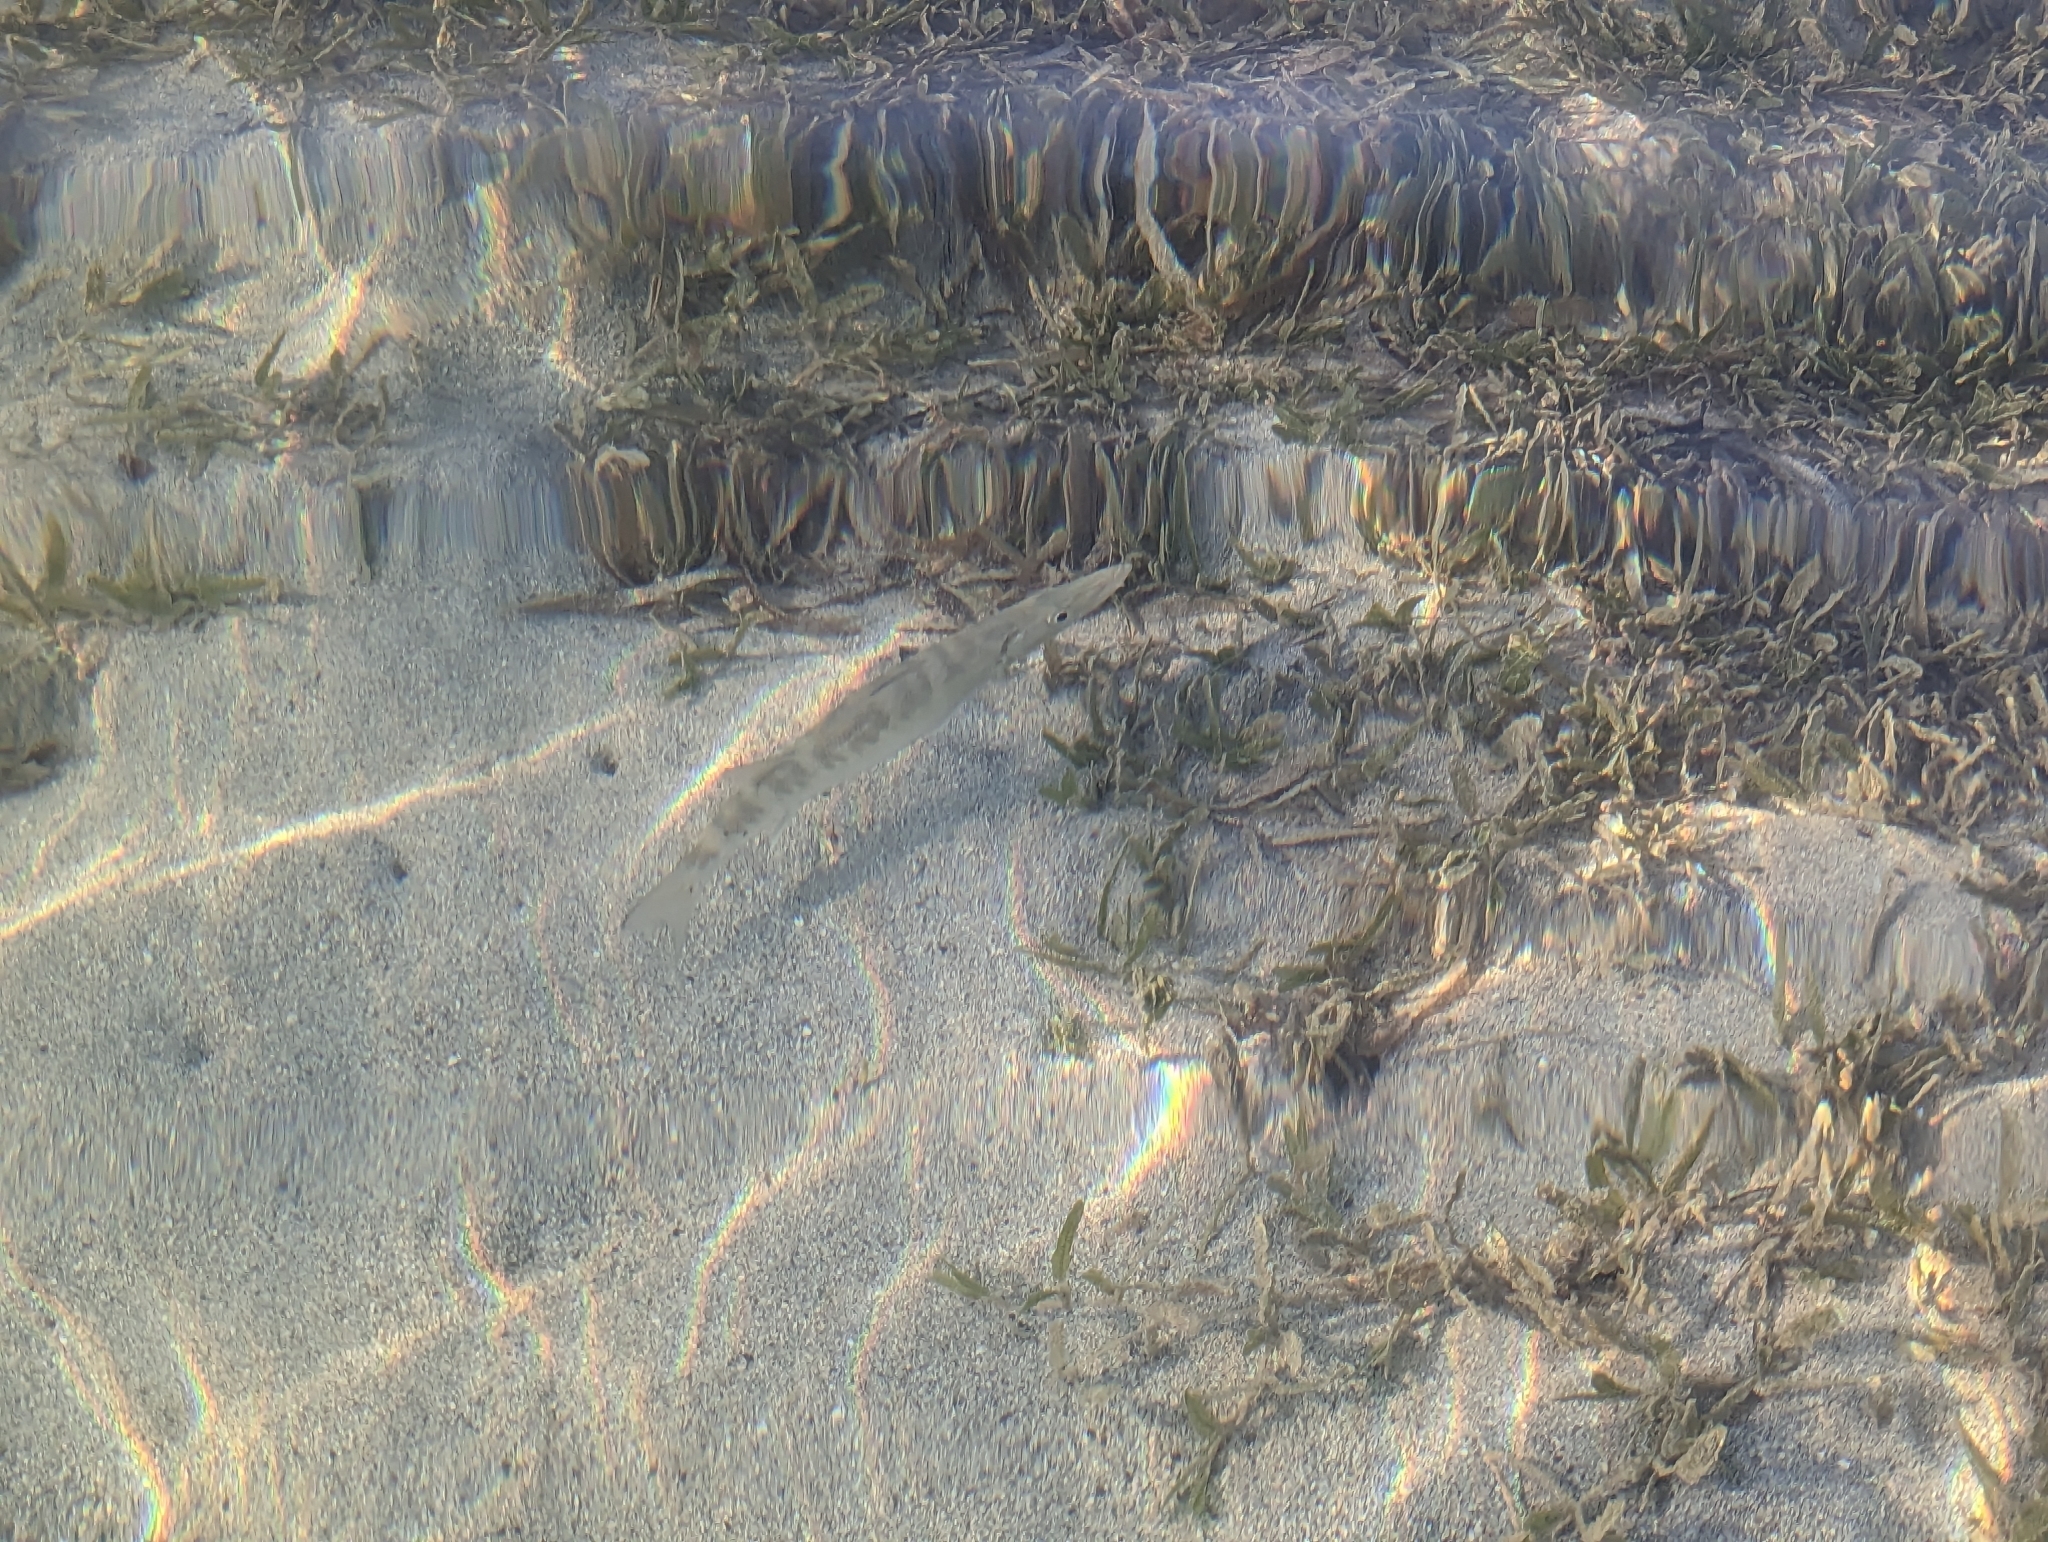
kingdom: Animalia
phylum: Chordata
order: Perciformes
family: Sphyraenidae
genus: Sphyraena
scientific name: Sphyraena barracuda
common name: Great barracuda
